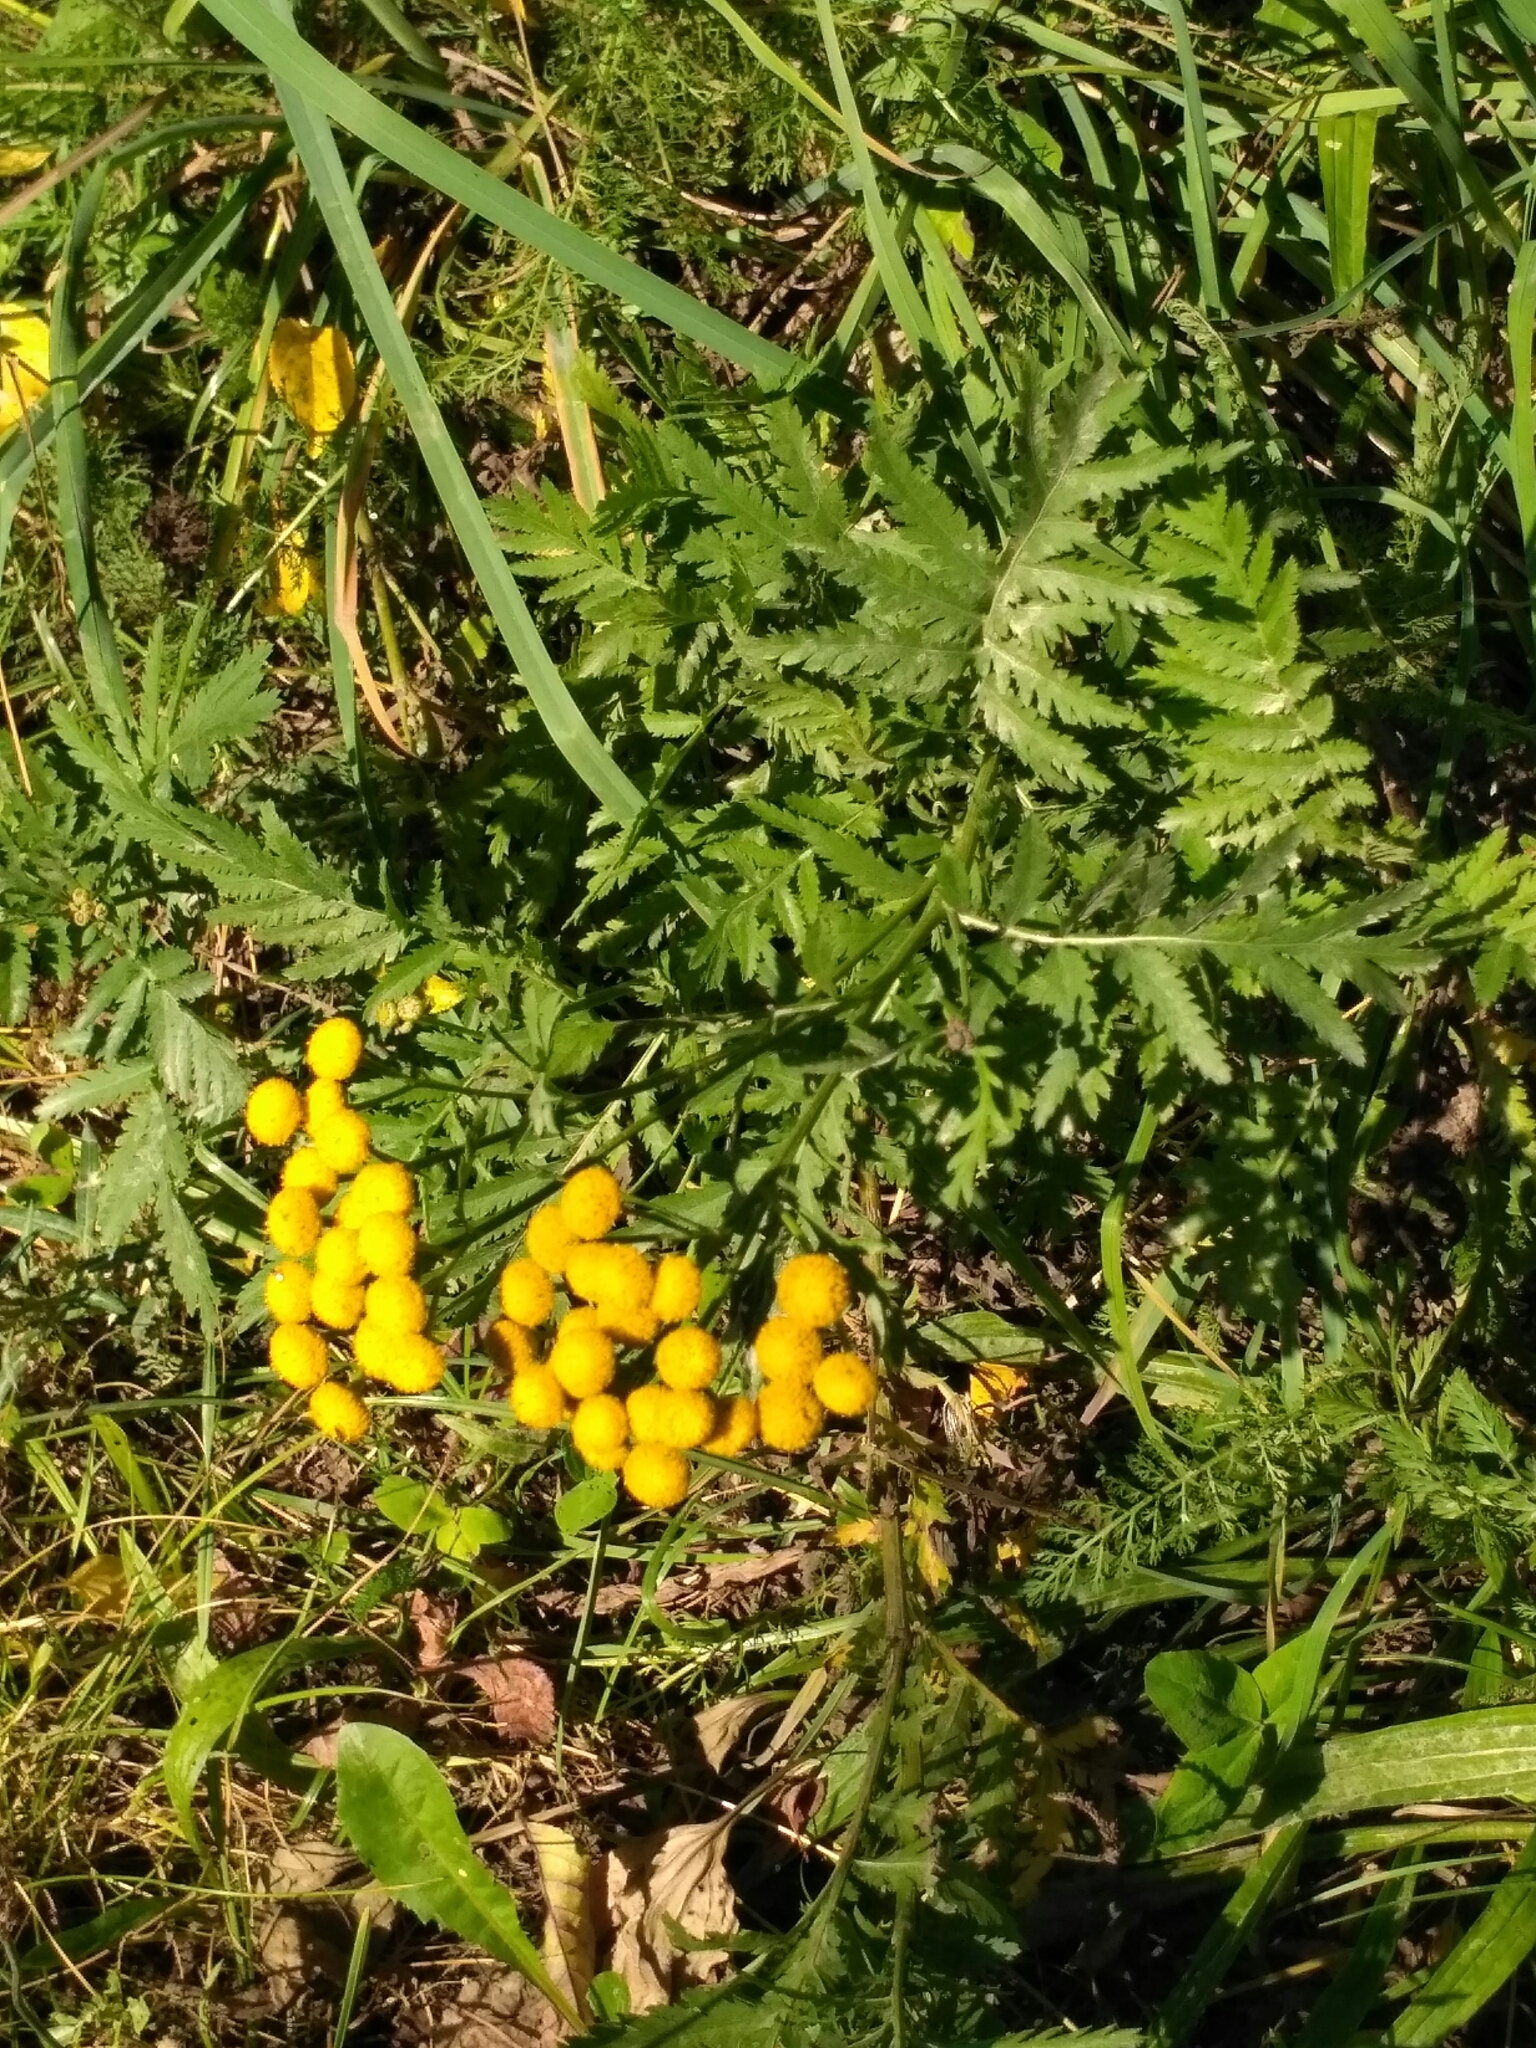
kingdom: Plantae
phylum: Tracheophyta
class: Magnoliopsida
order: Asterales
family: Asteraceae
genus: Tanacetum
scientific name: Tanacetum vulgare
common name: Common tansy
